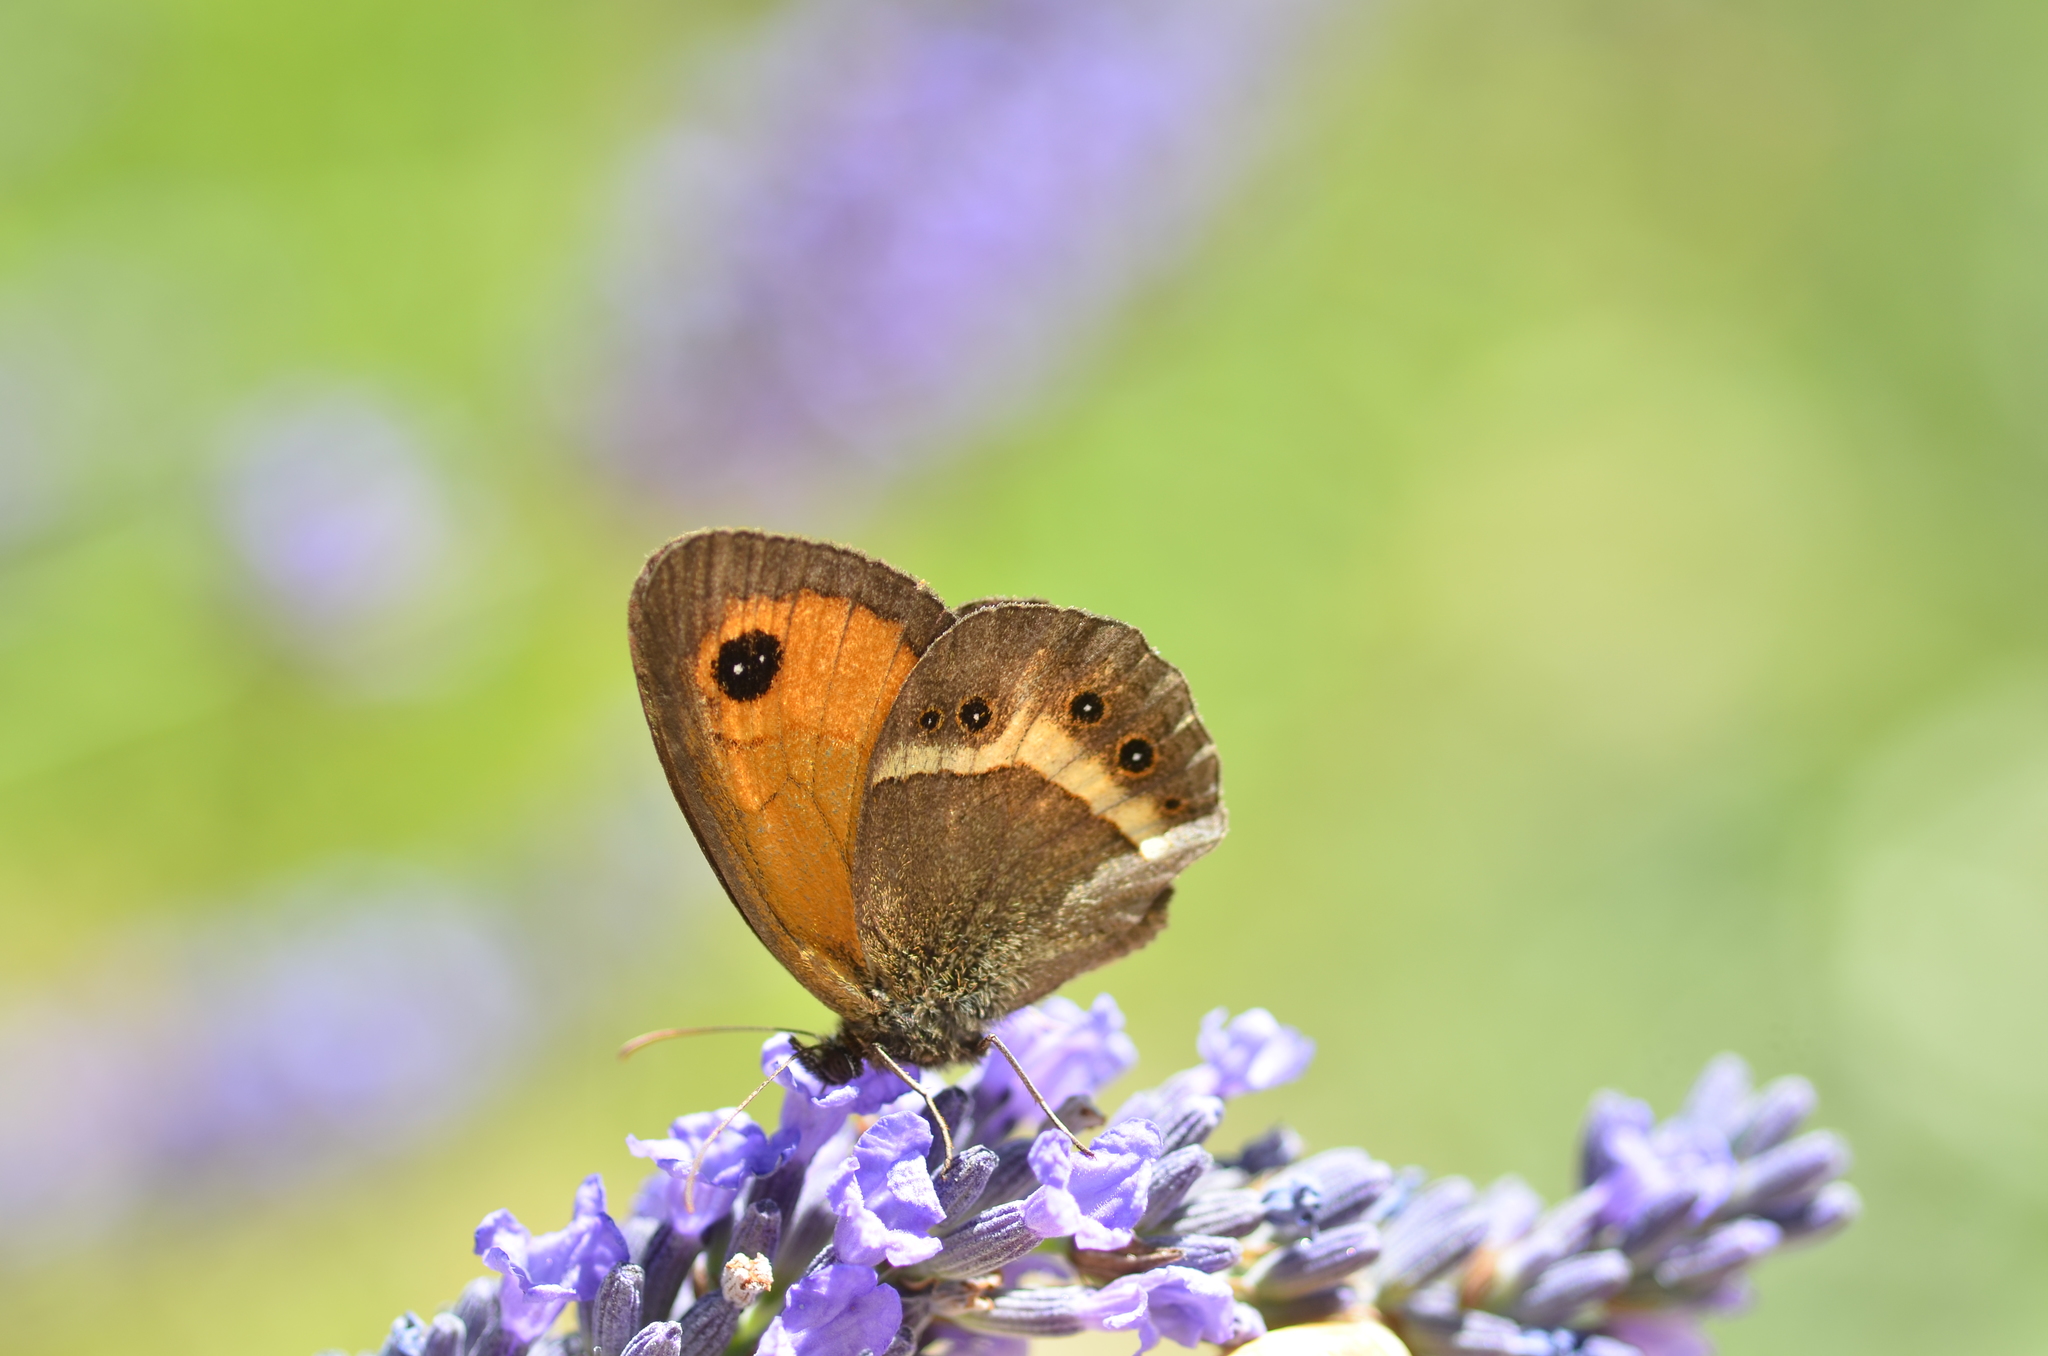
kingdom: Animalia
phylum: Arthropoda
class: Insecta
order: Lepidoptera
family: Nymphalidae
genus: Pyronia
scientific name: Pyronia bathseba
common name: Spanish gatekeeper
